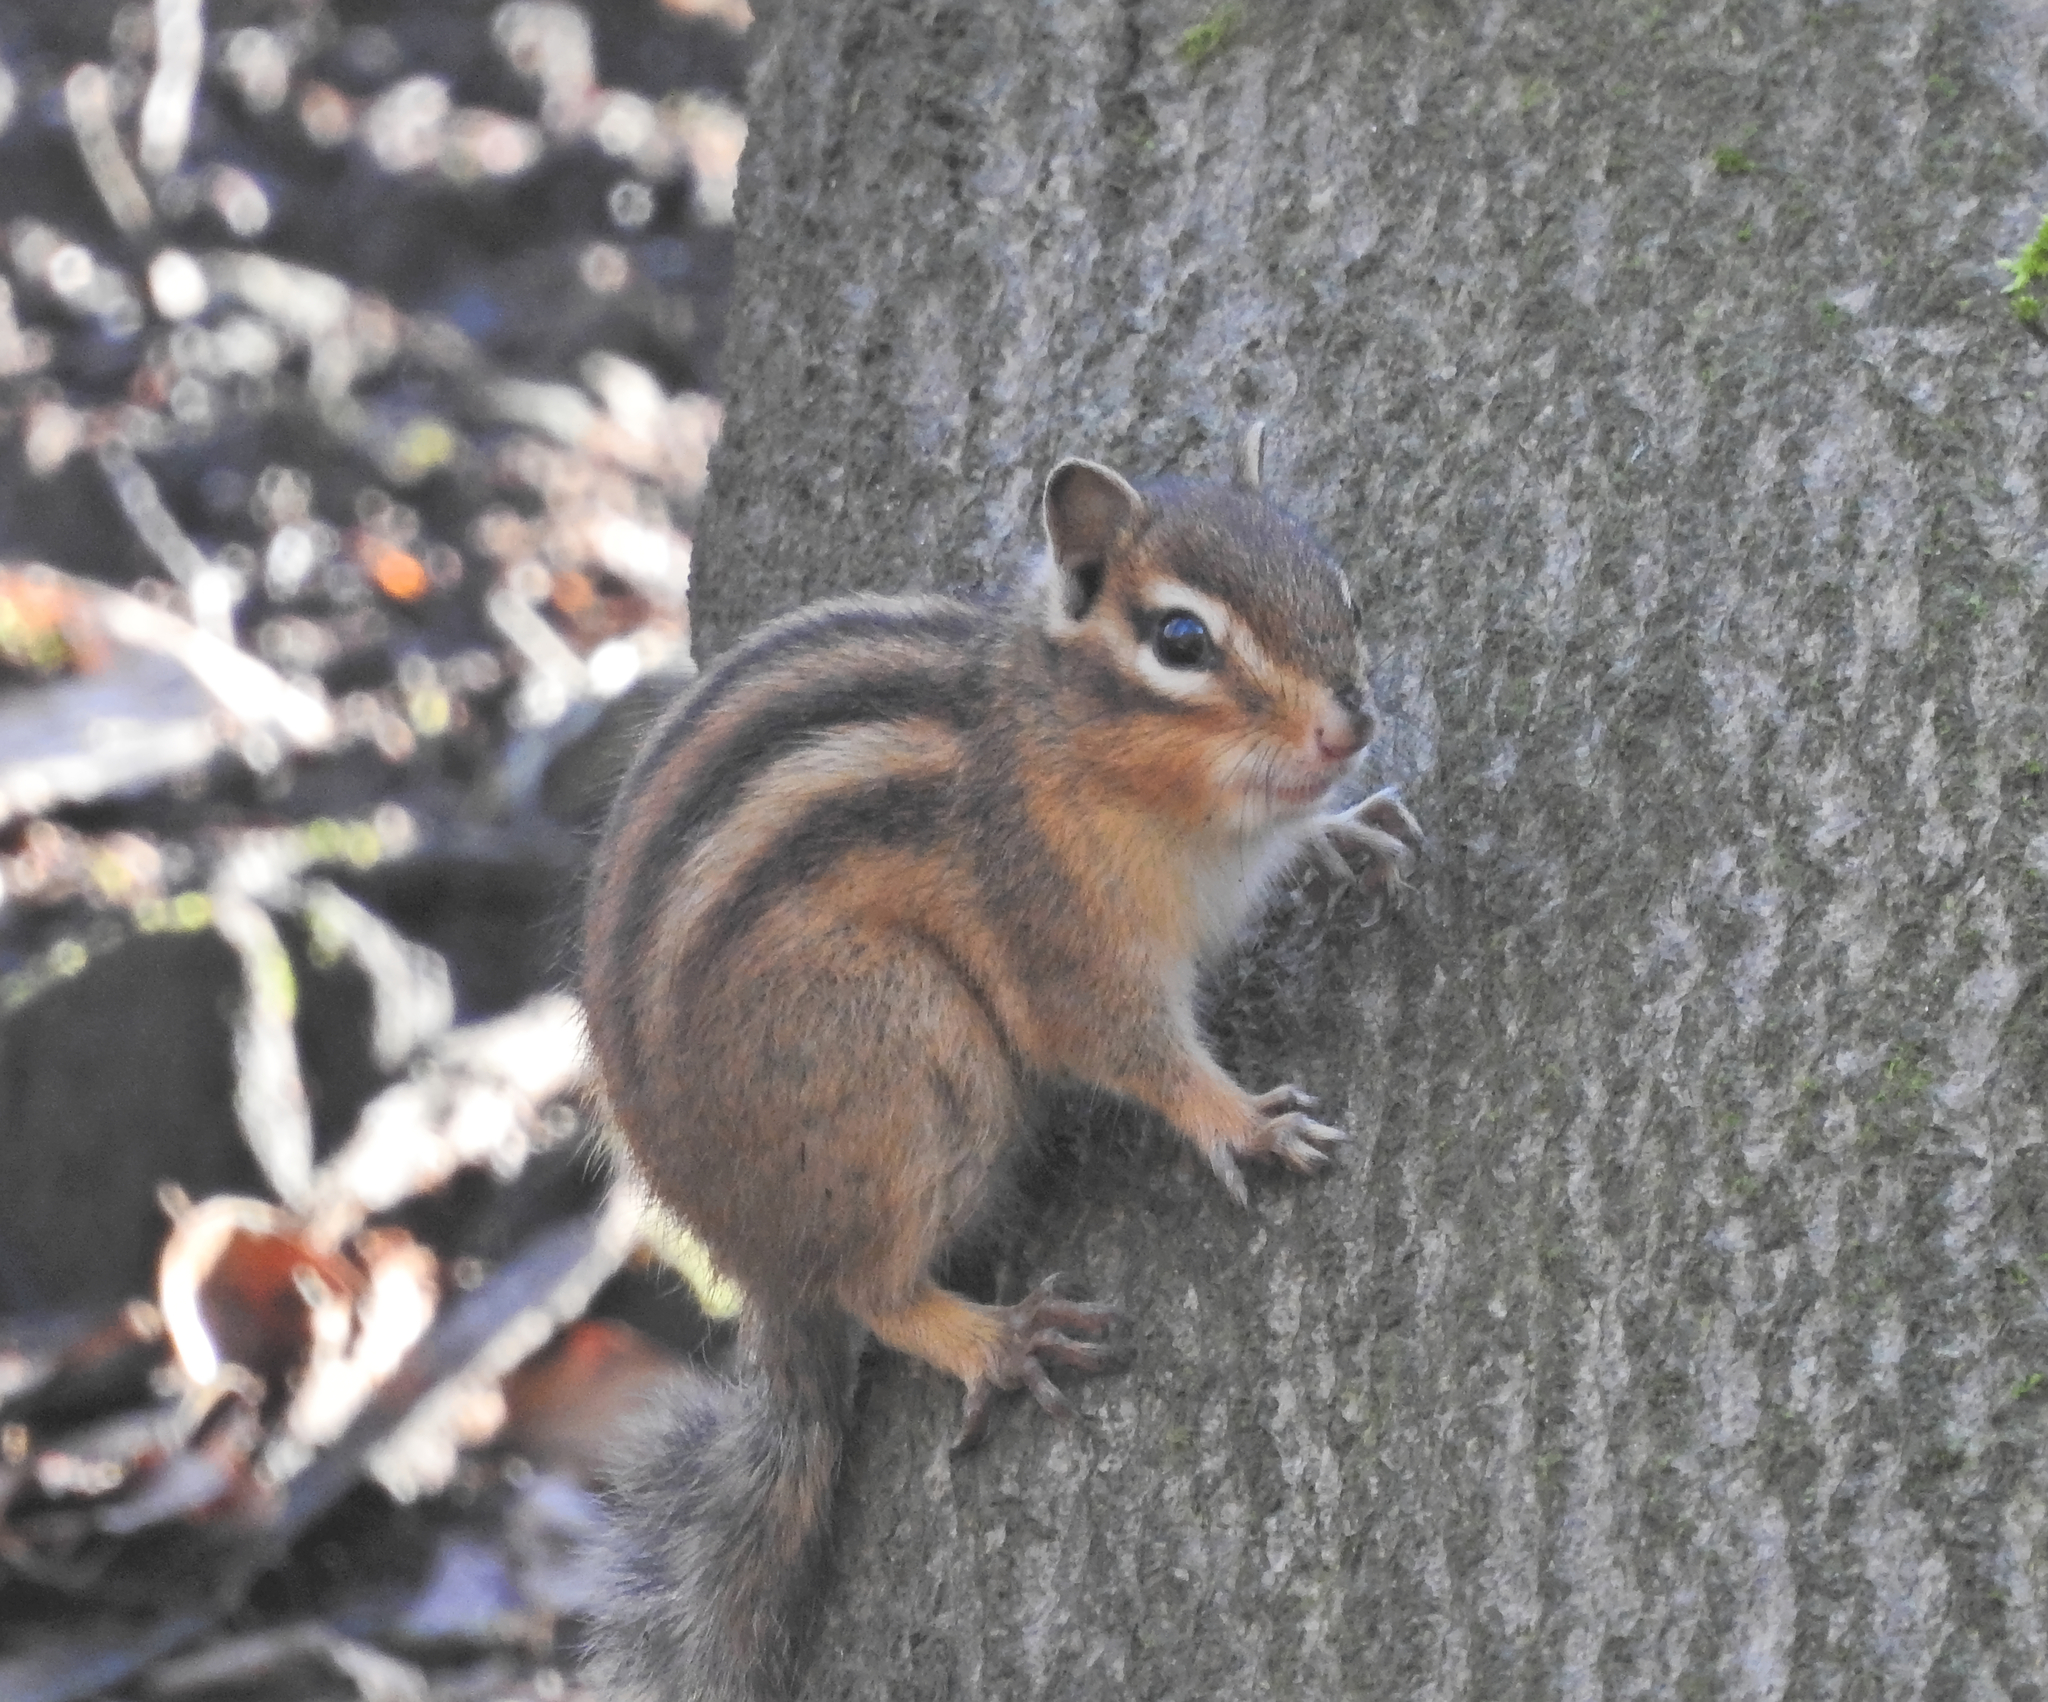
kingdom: Animalia
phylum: Chordata
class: Mammalia
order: Rodentia
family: Sciuridae
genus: Tamias
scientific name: Tamias sibiricus
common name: Siberian chipmunk
